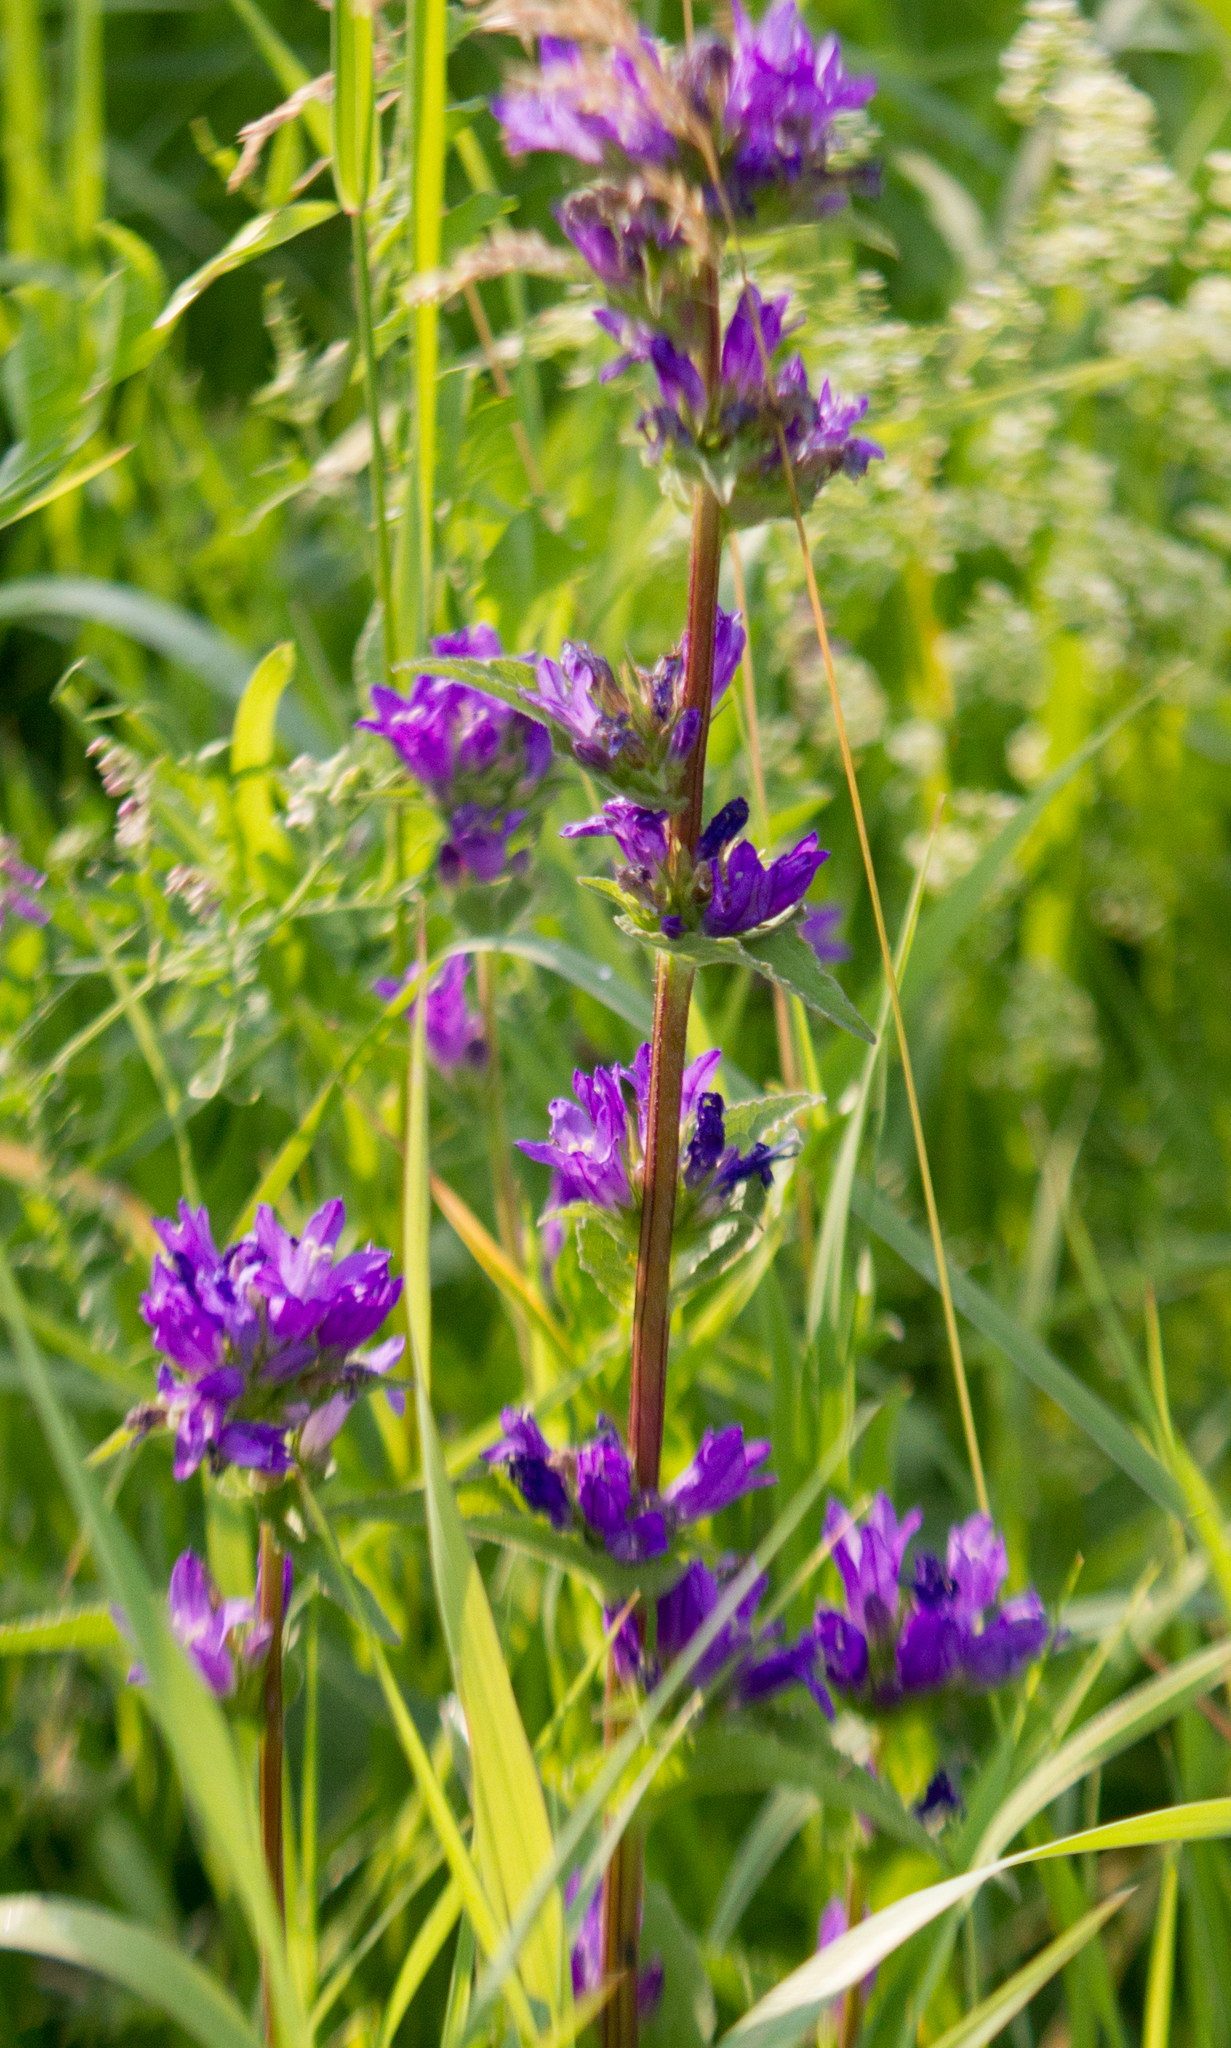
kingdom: Plantae
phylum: Tracheophyta
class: Magnoliopsida
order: Asterales
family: Campanulaceae
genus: Campanula
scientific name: Campanula glomerata
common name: Clustered bellflower
